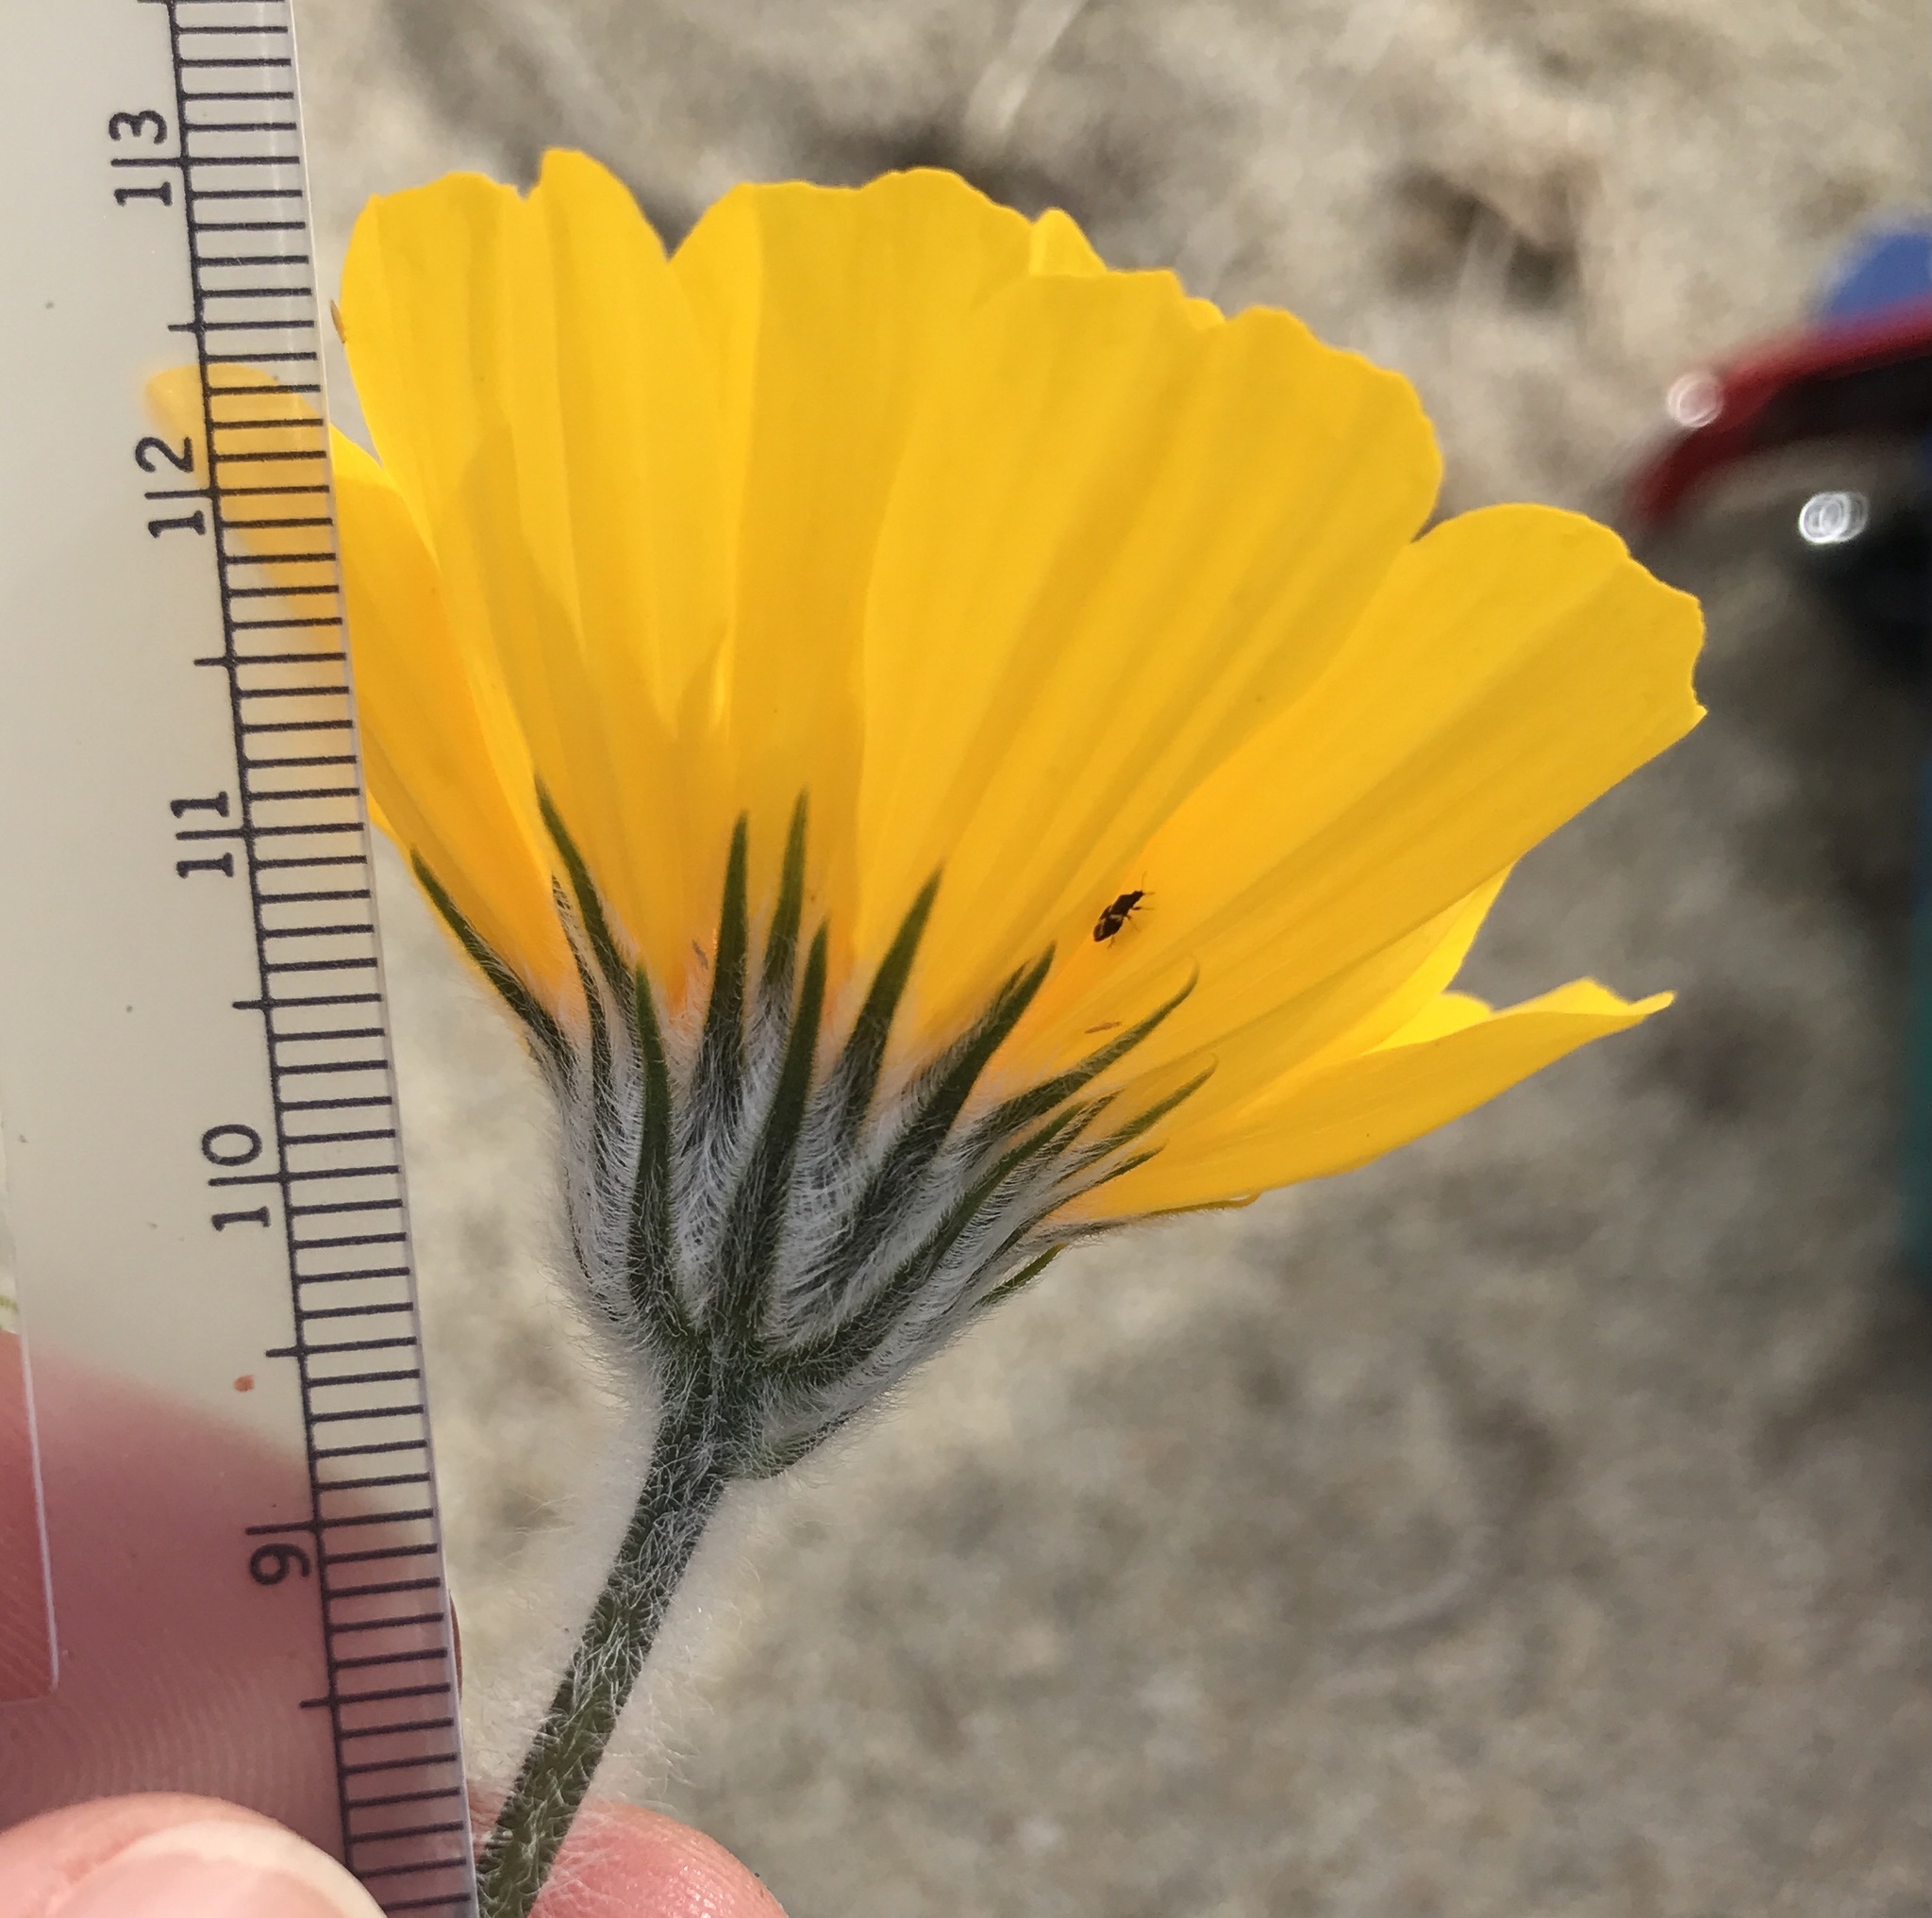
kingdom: Plantae
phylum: Tracheophyta
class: Magnoliopsida
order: Asterales
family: Asteraceae
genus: Geraea
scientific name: Geraea canescens
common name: Desert-gold
